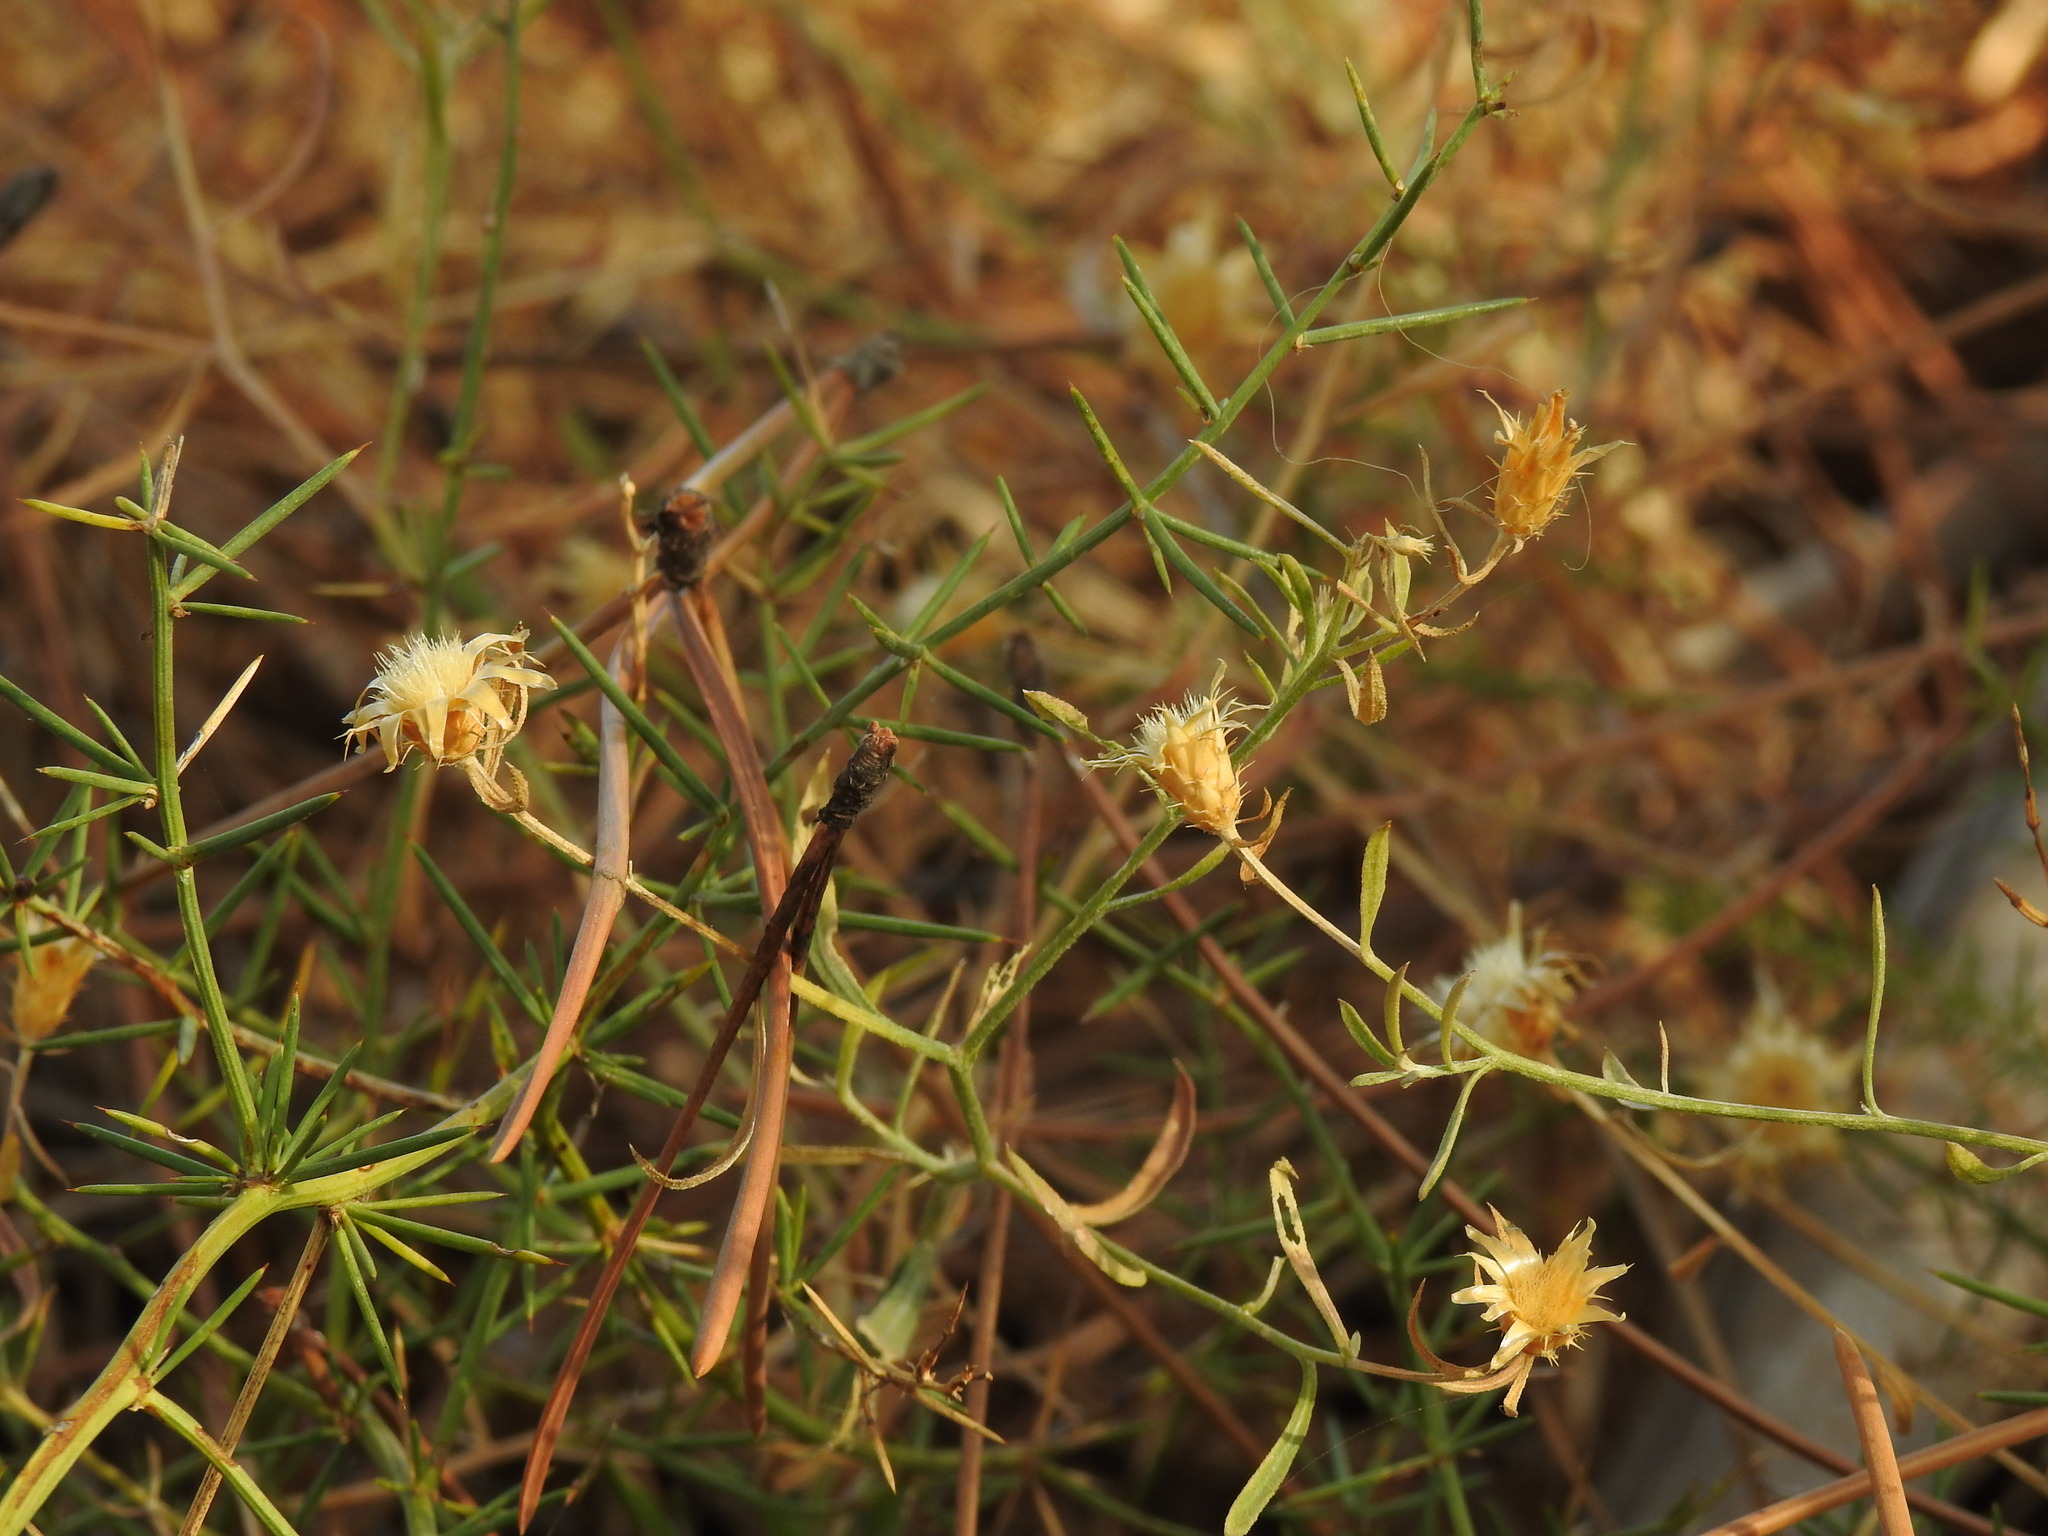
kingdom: Plantae
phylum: Tracheophyta
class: Magnoliopsida
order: Asterales
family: Asteraceae
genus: Centaurea
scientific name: Centaurea aspera
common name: Rough star-thistle
